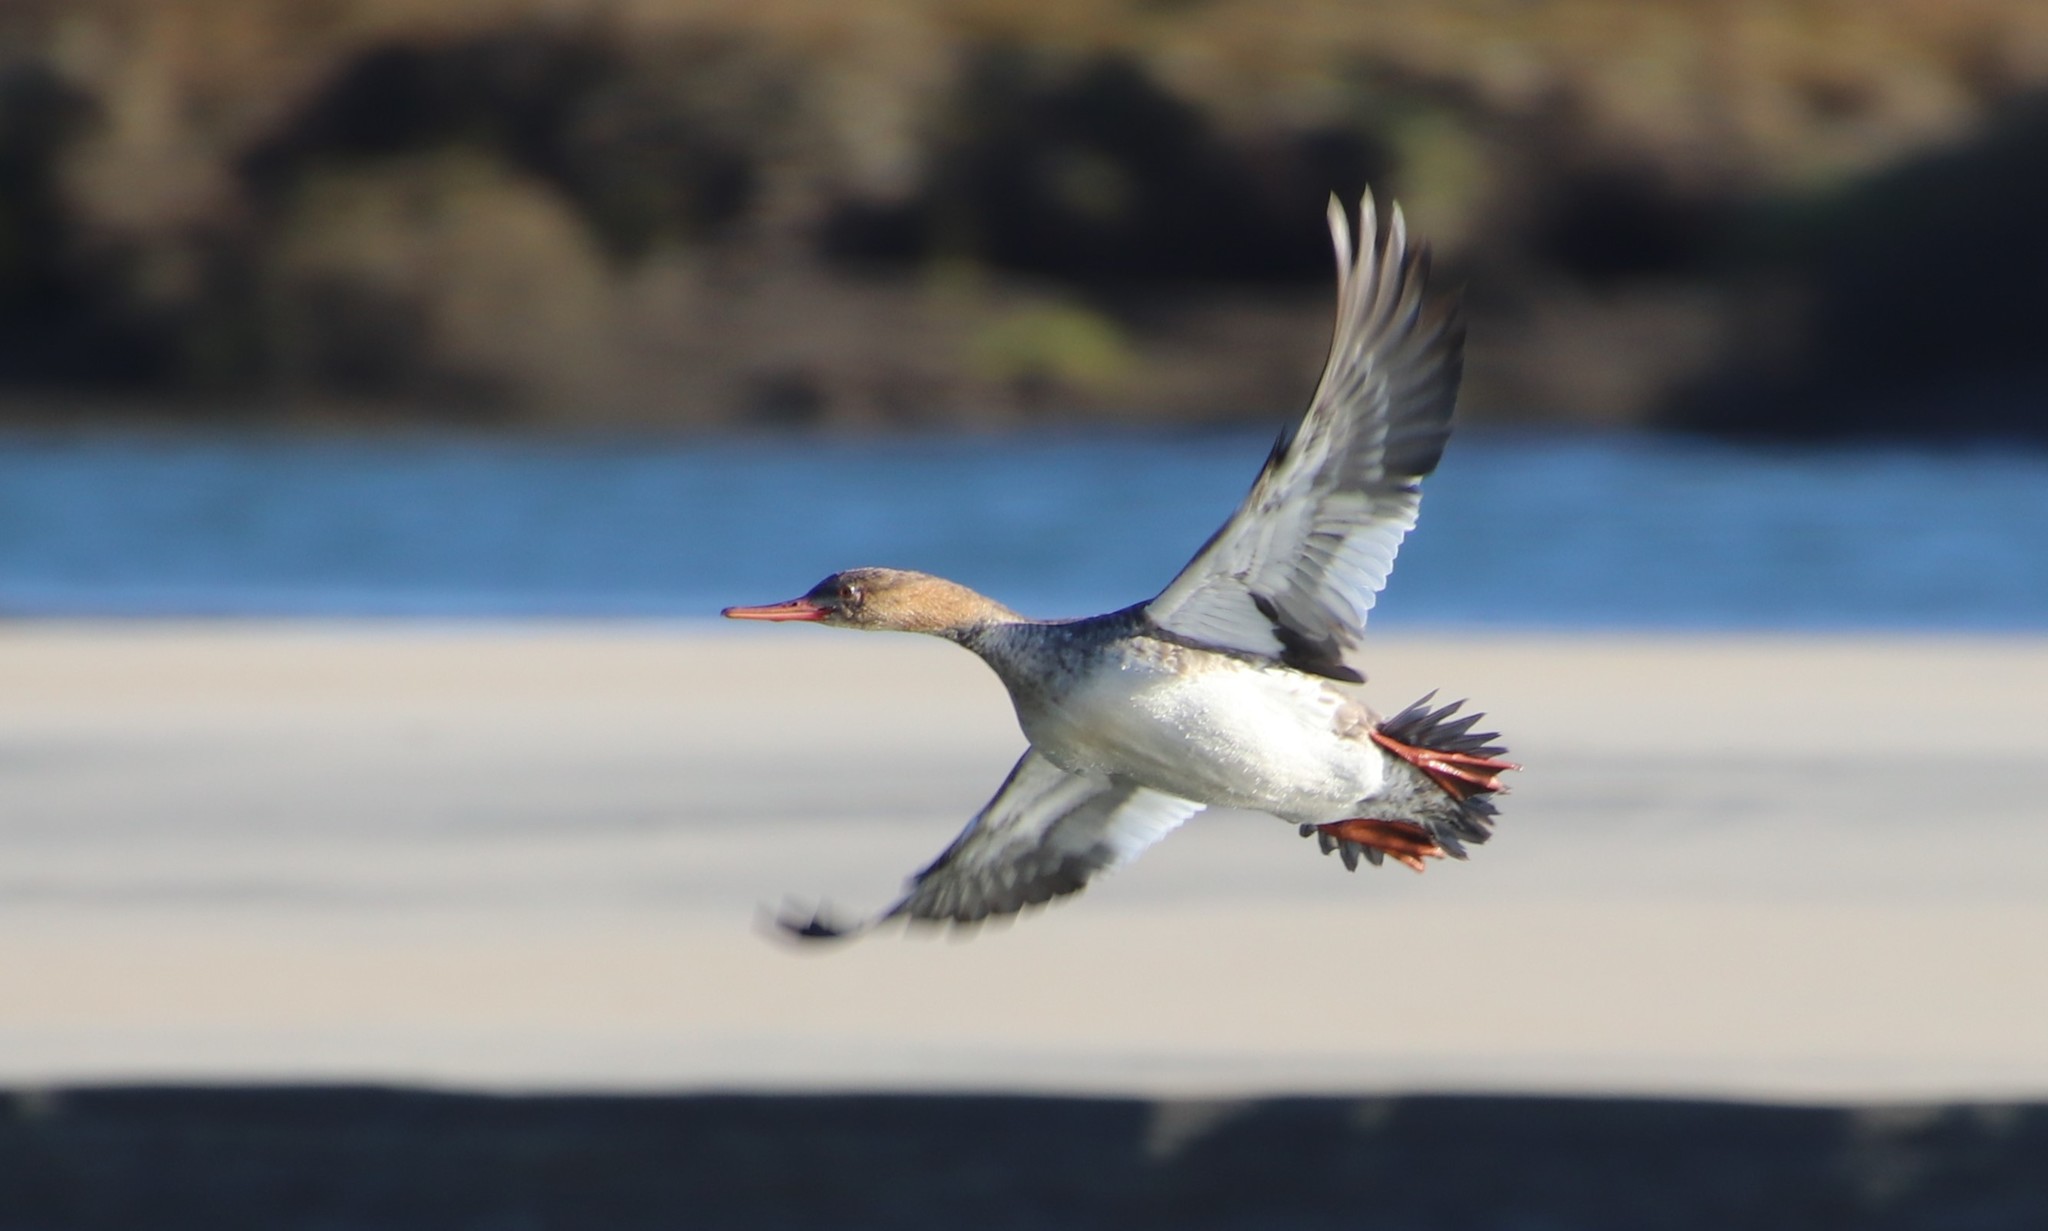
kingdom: Animalia
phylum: Chordata
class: Aves
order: Anseriformes
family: Anatidae
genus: Mergus
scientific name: Mergus serrator
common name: Red-breasted merganser
